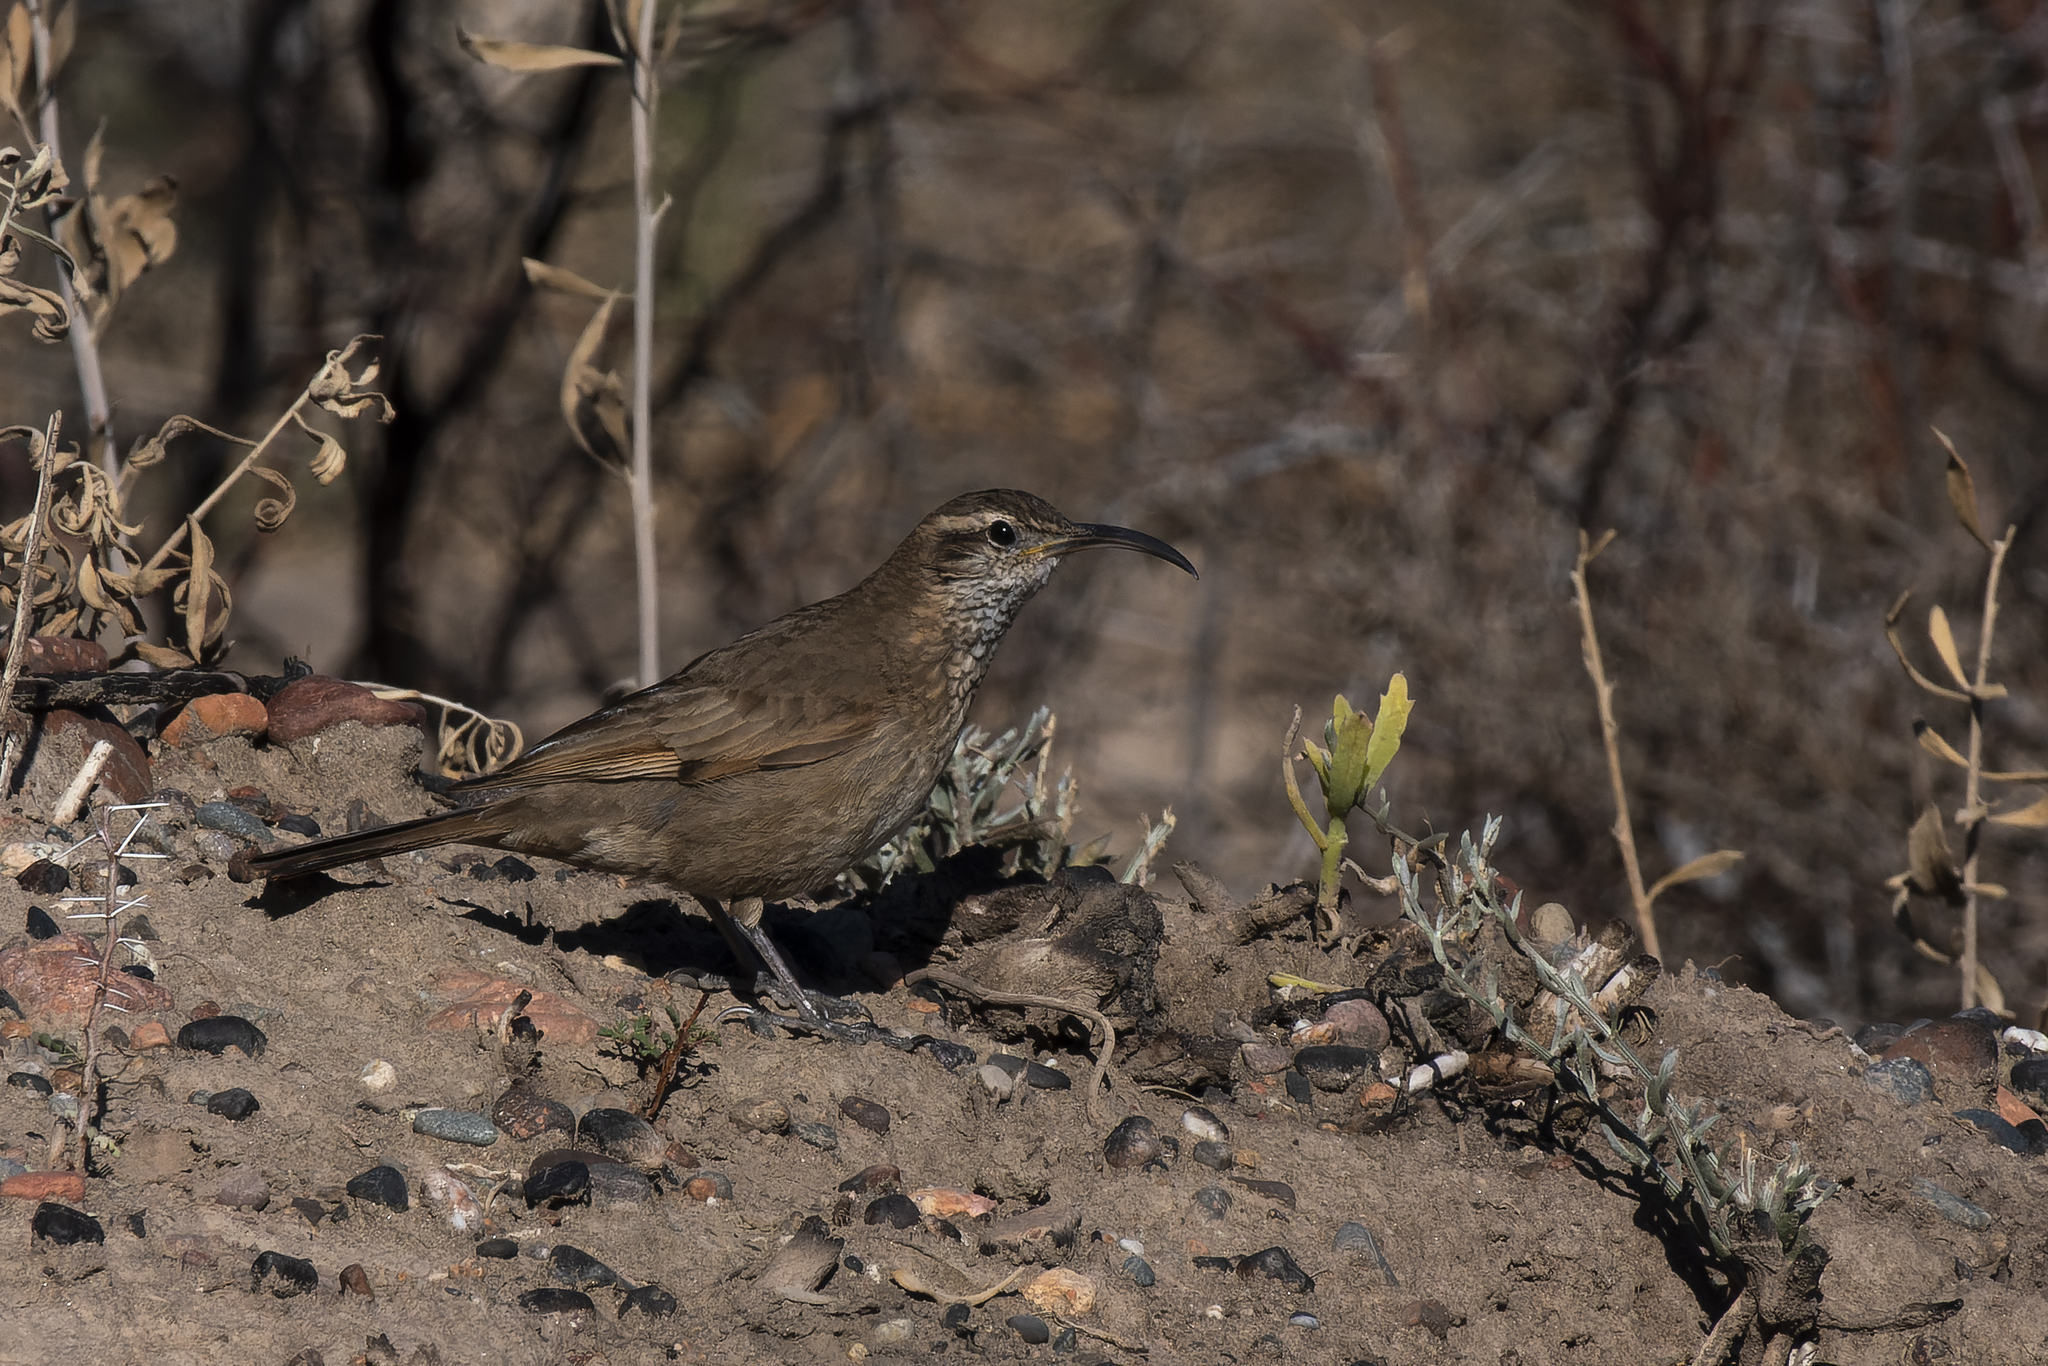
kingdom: Animalia
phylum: Chordata
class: Aves
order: Passeriformes
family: Furnariidae
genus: Upucerthia
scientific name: Upucerthia dumetaria
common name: Scale-throated earthcreeper
